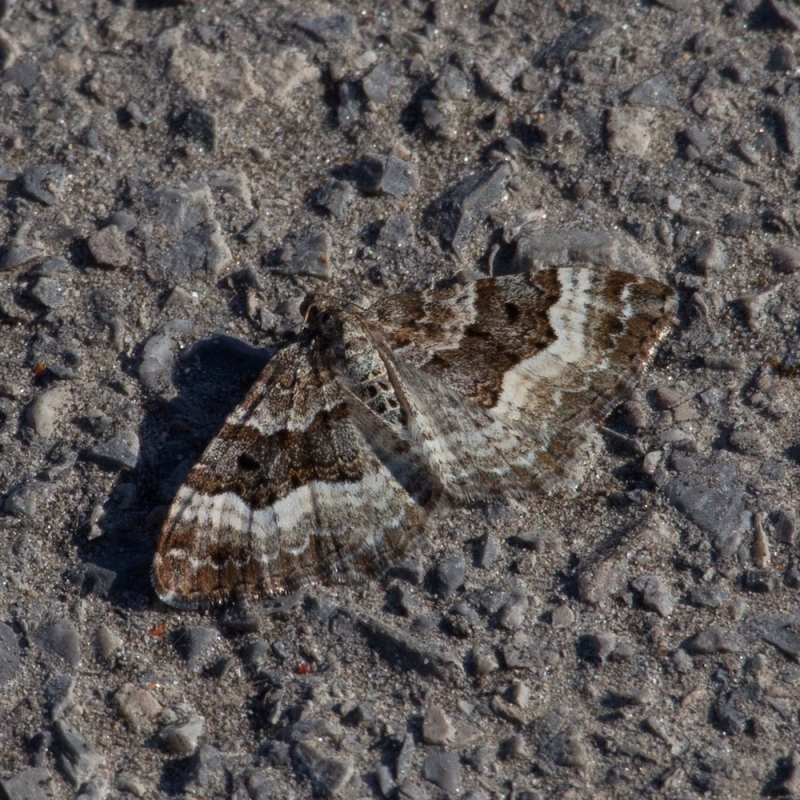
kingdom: Animalia
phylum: Arthropoda
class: Insecta
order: Lepidoptera
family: Geometridae
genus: Epirrhoe
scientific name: Epirrhoe alternata
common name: Common carpet
